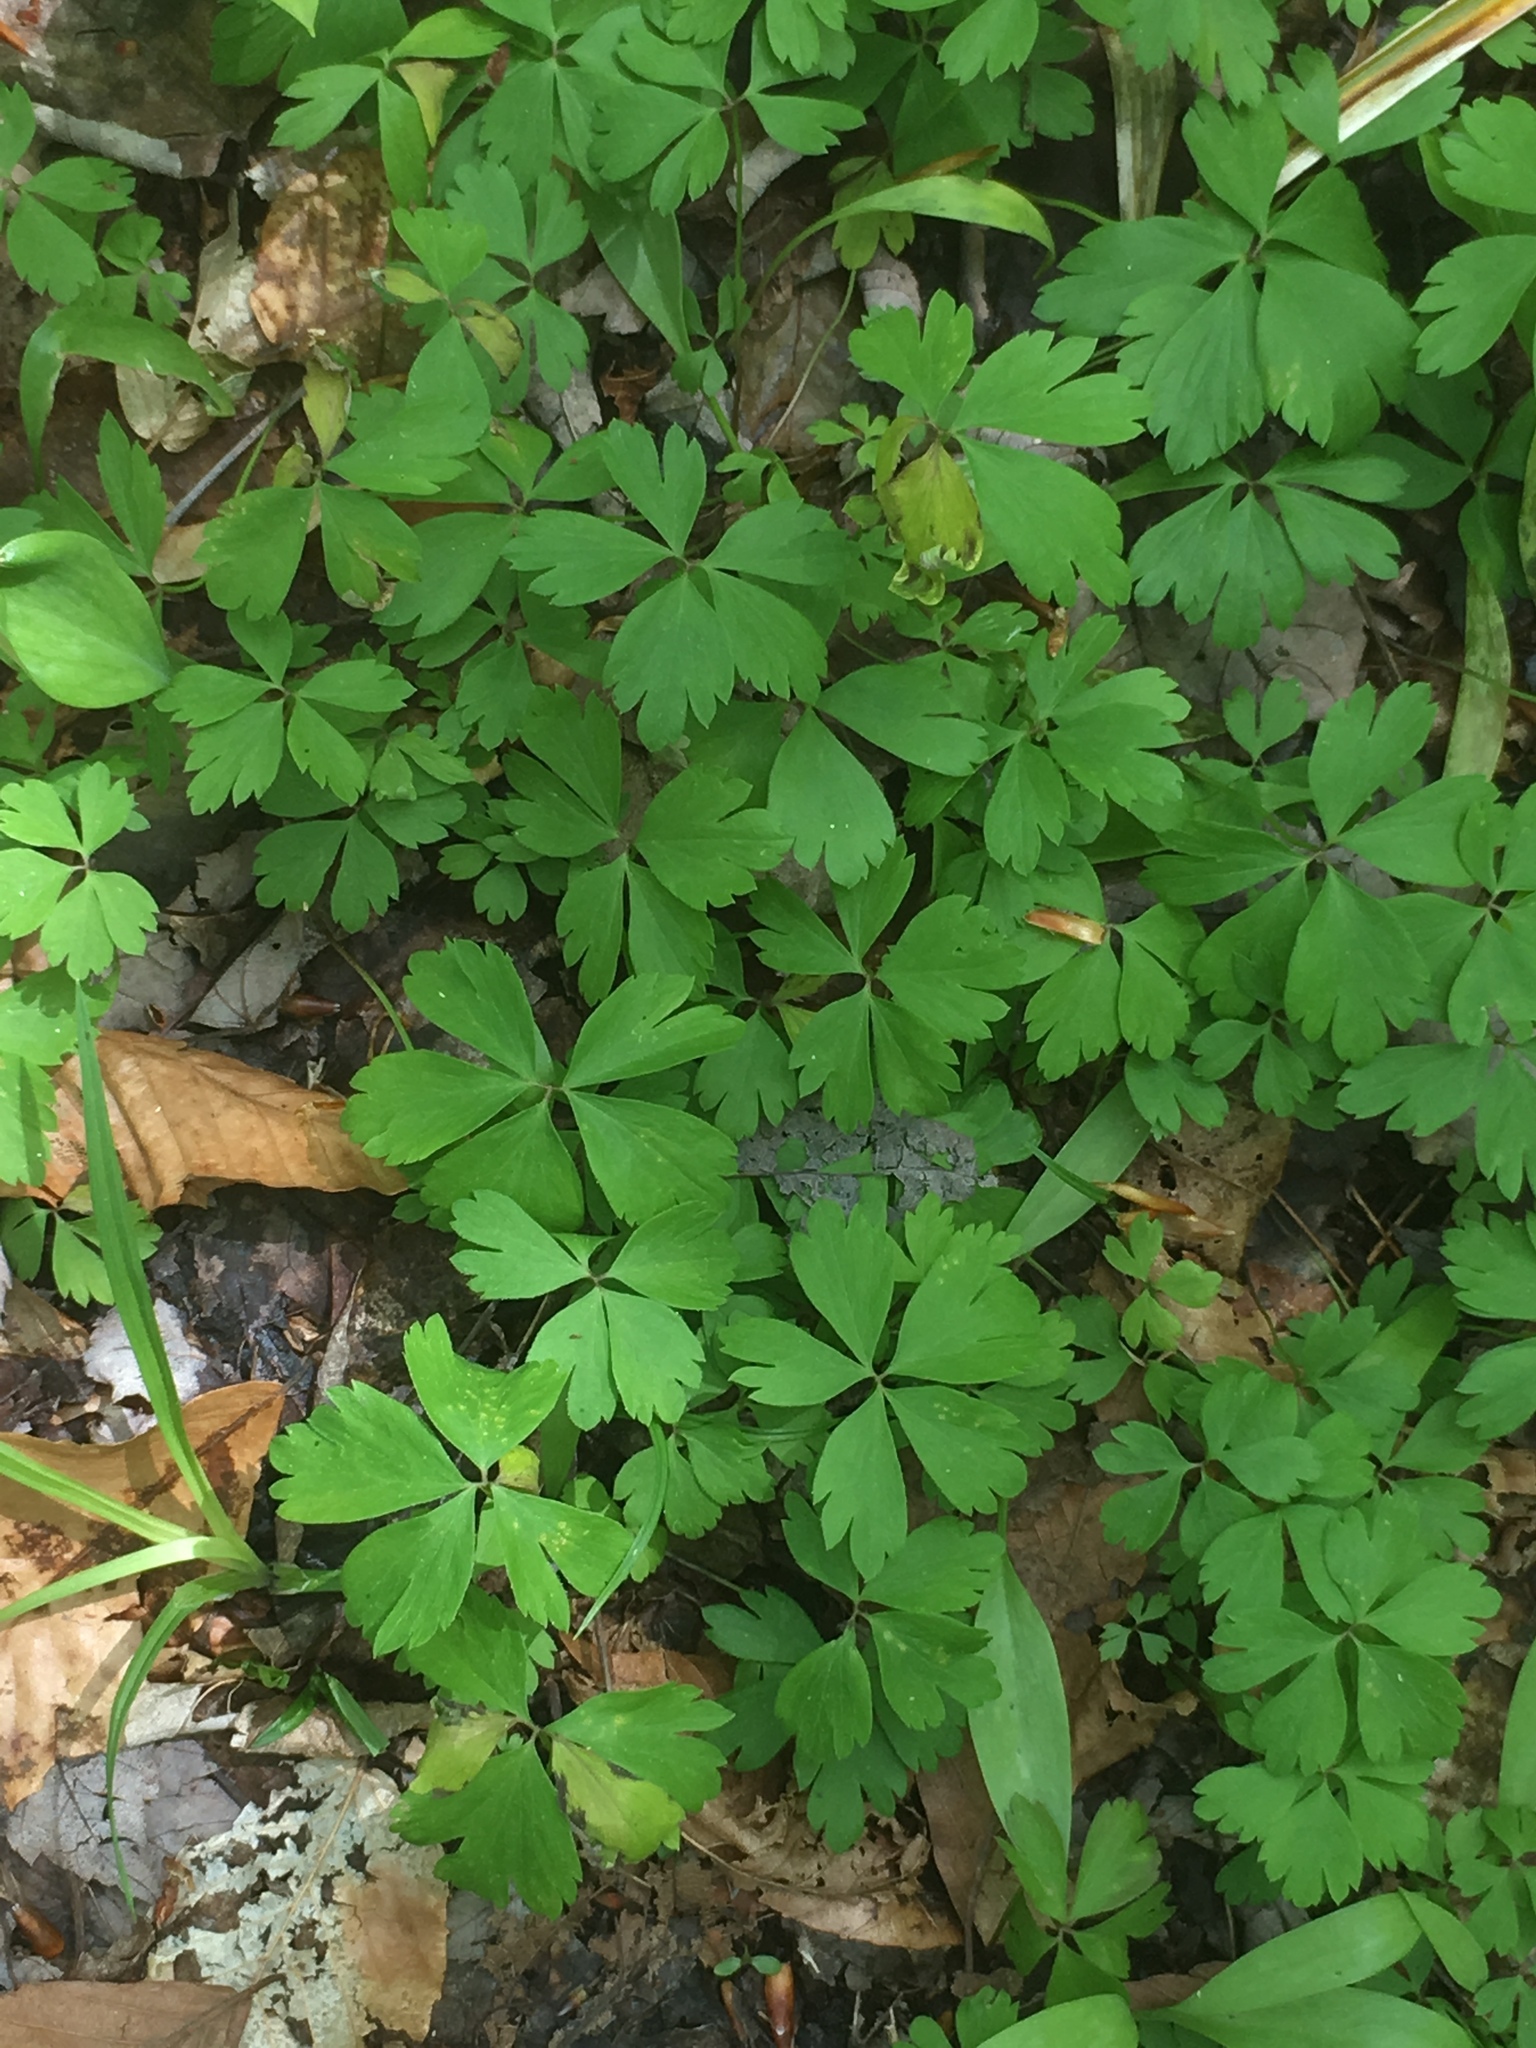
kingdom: Plantae
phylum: Tracheophyta
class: Magnoliopsida
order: Ranunculales
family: Ranunculaceae
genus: Anemone
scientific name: Anemone quinquefolia
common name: Wood anemone
